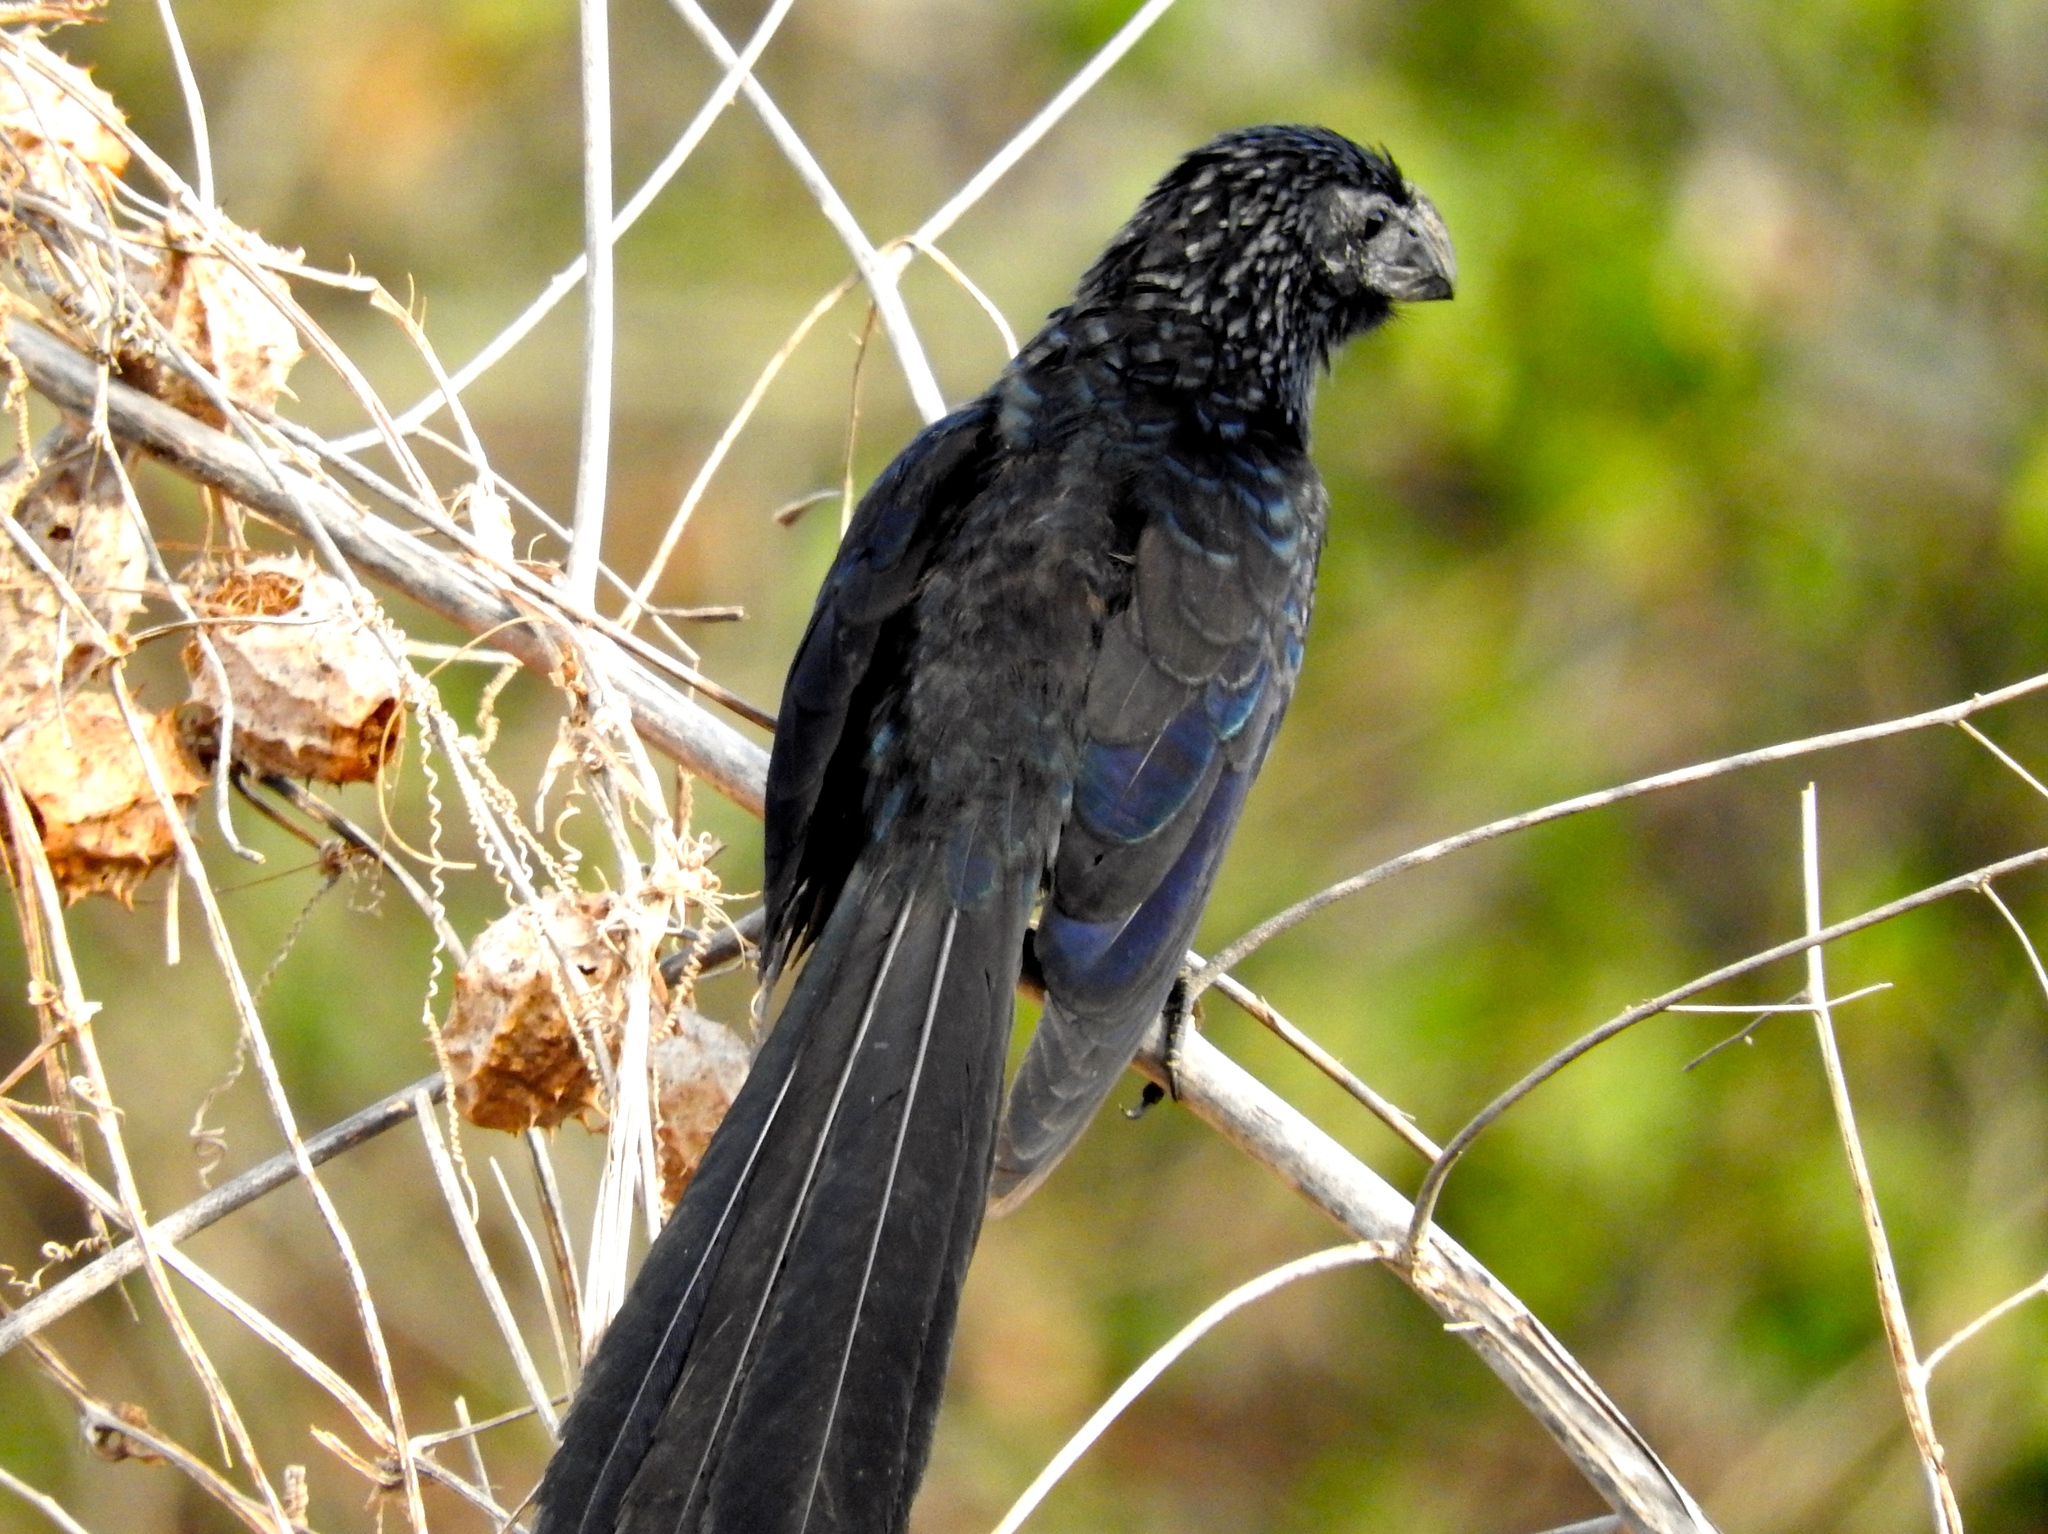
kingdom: Animalia
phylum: Chordata
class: Aves
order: Cuculiformes
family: Cuculidae
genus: Crotophaga
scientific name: Crotophaga sulcirostris
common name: Groove-billed ani
